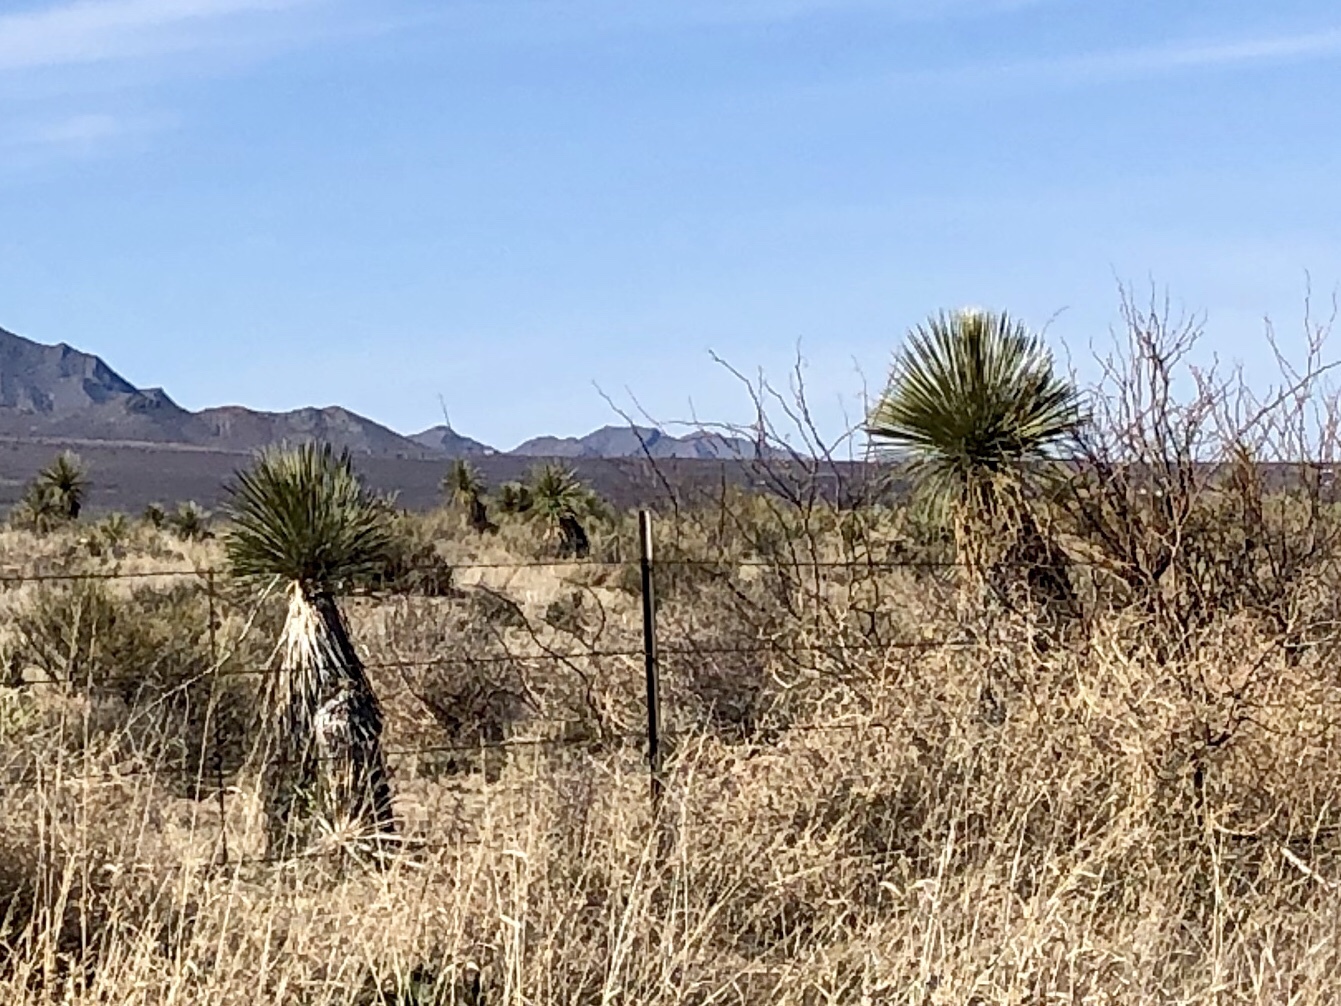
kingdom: Plantae
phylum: Tracheophyta
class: Liliopsida
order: Asparagales
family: Asparagaceae
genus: Yucca
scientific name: Yucca elata
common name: Palmella
